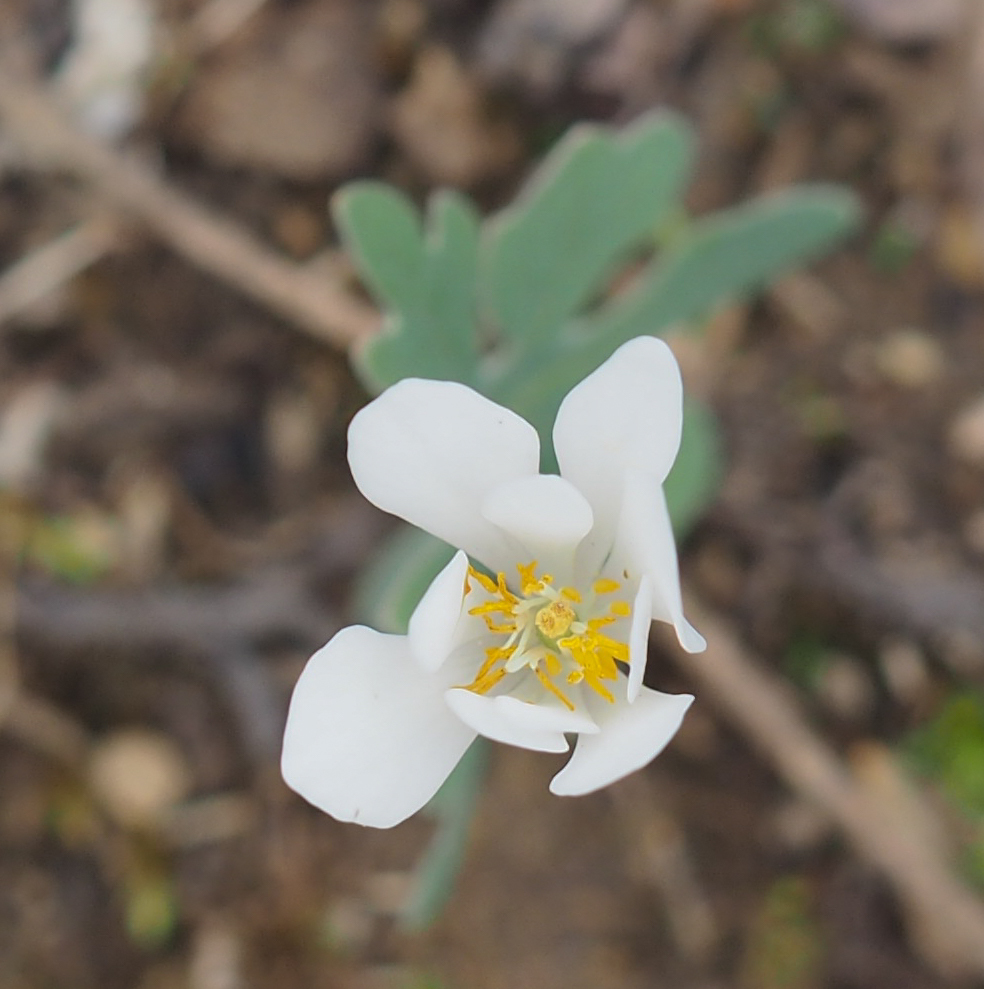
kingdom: Plantae
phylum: Tracheophyta
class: Magnoliopsida
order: Ranunculales
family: Papaveraceae
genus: Sanguinaria
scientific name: Sanguinaria canadensis
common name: Bloodroot
